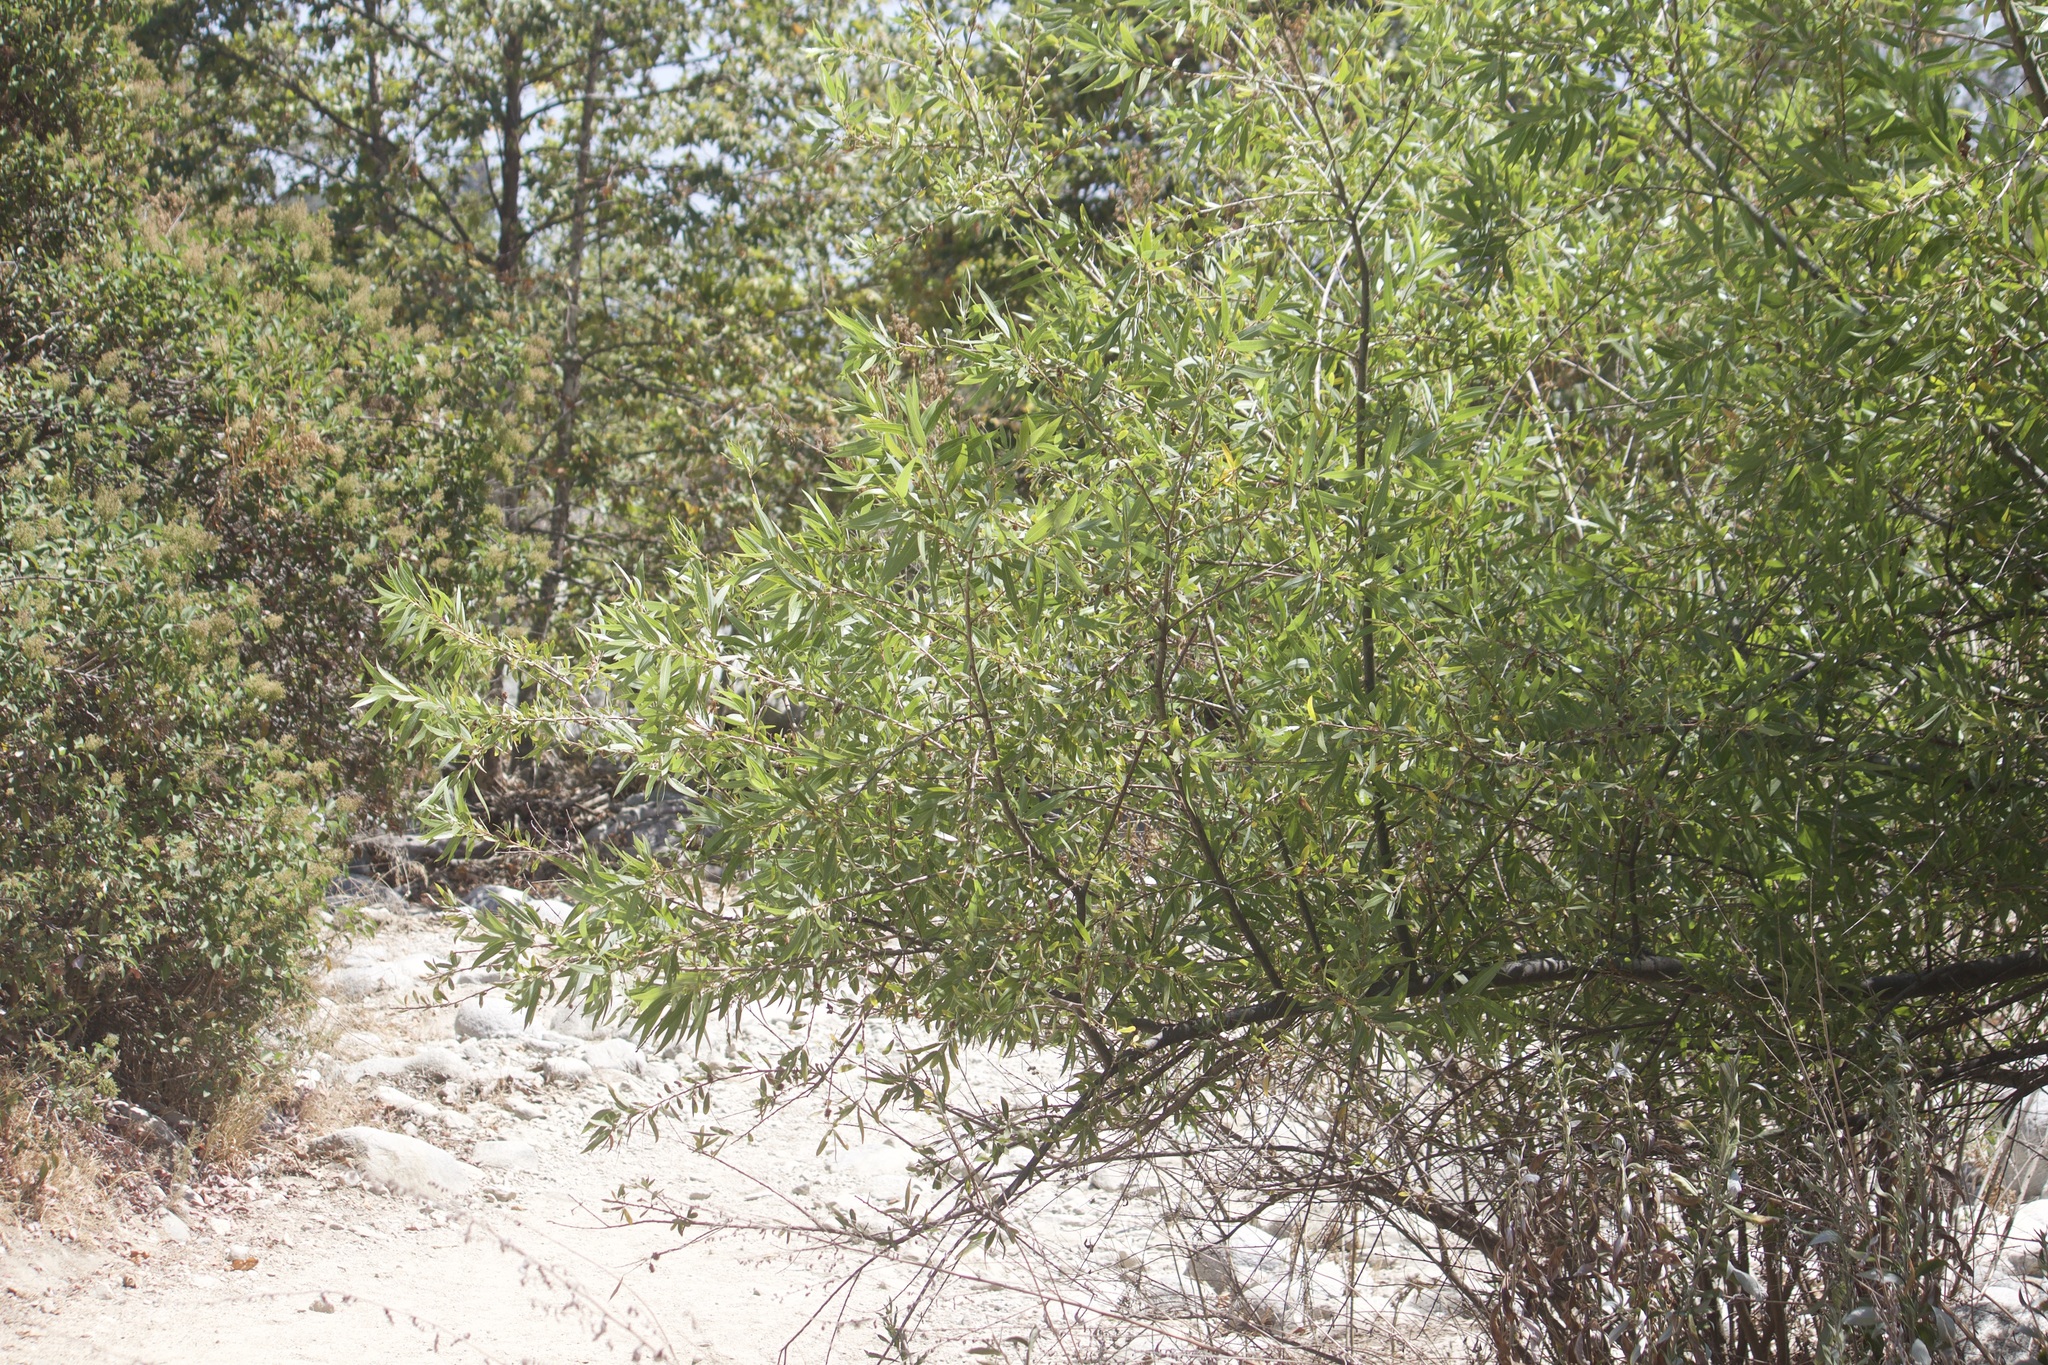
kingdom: Plantae
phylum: Tracheophyta
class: Magnoliopsida
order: Malpighiales
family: Salicaceae
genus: Salix
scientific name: Salix gooddingii
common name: Goodding's willow
